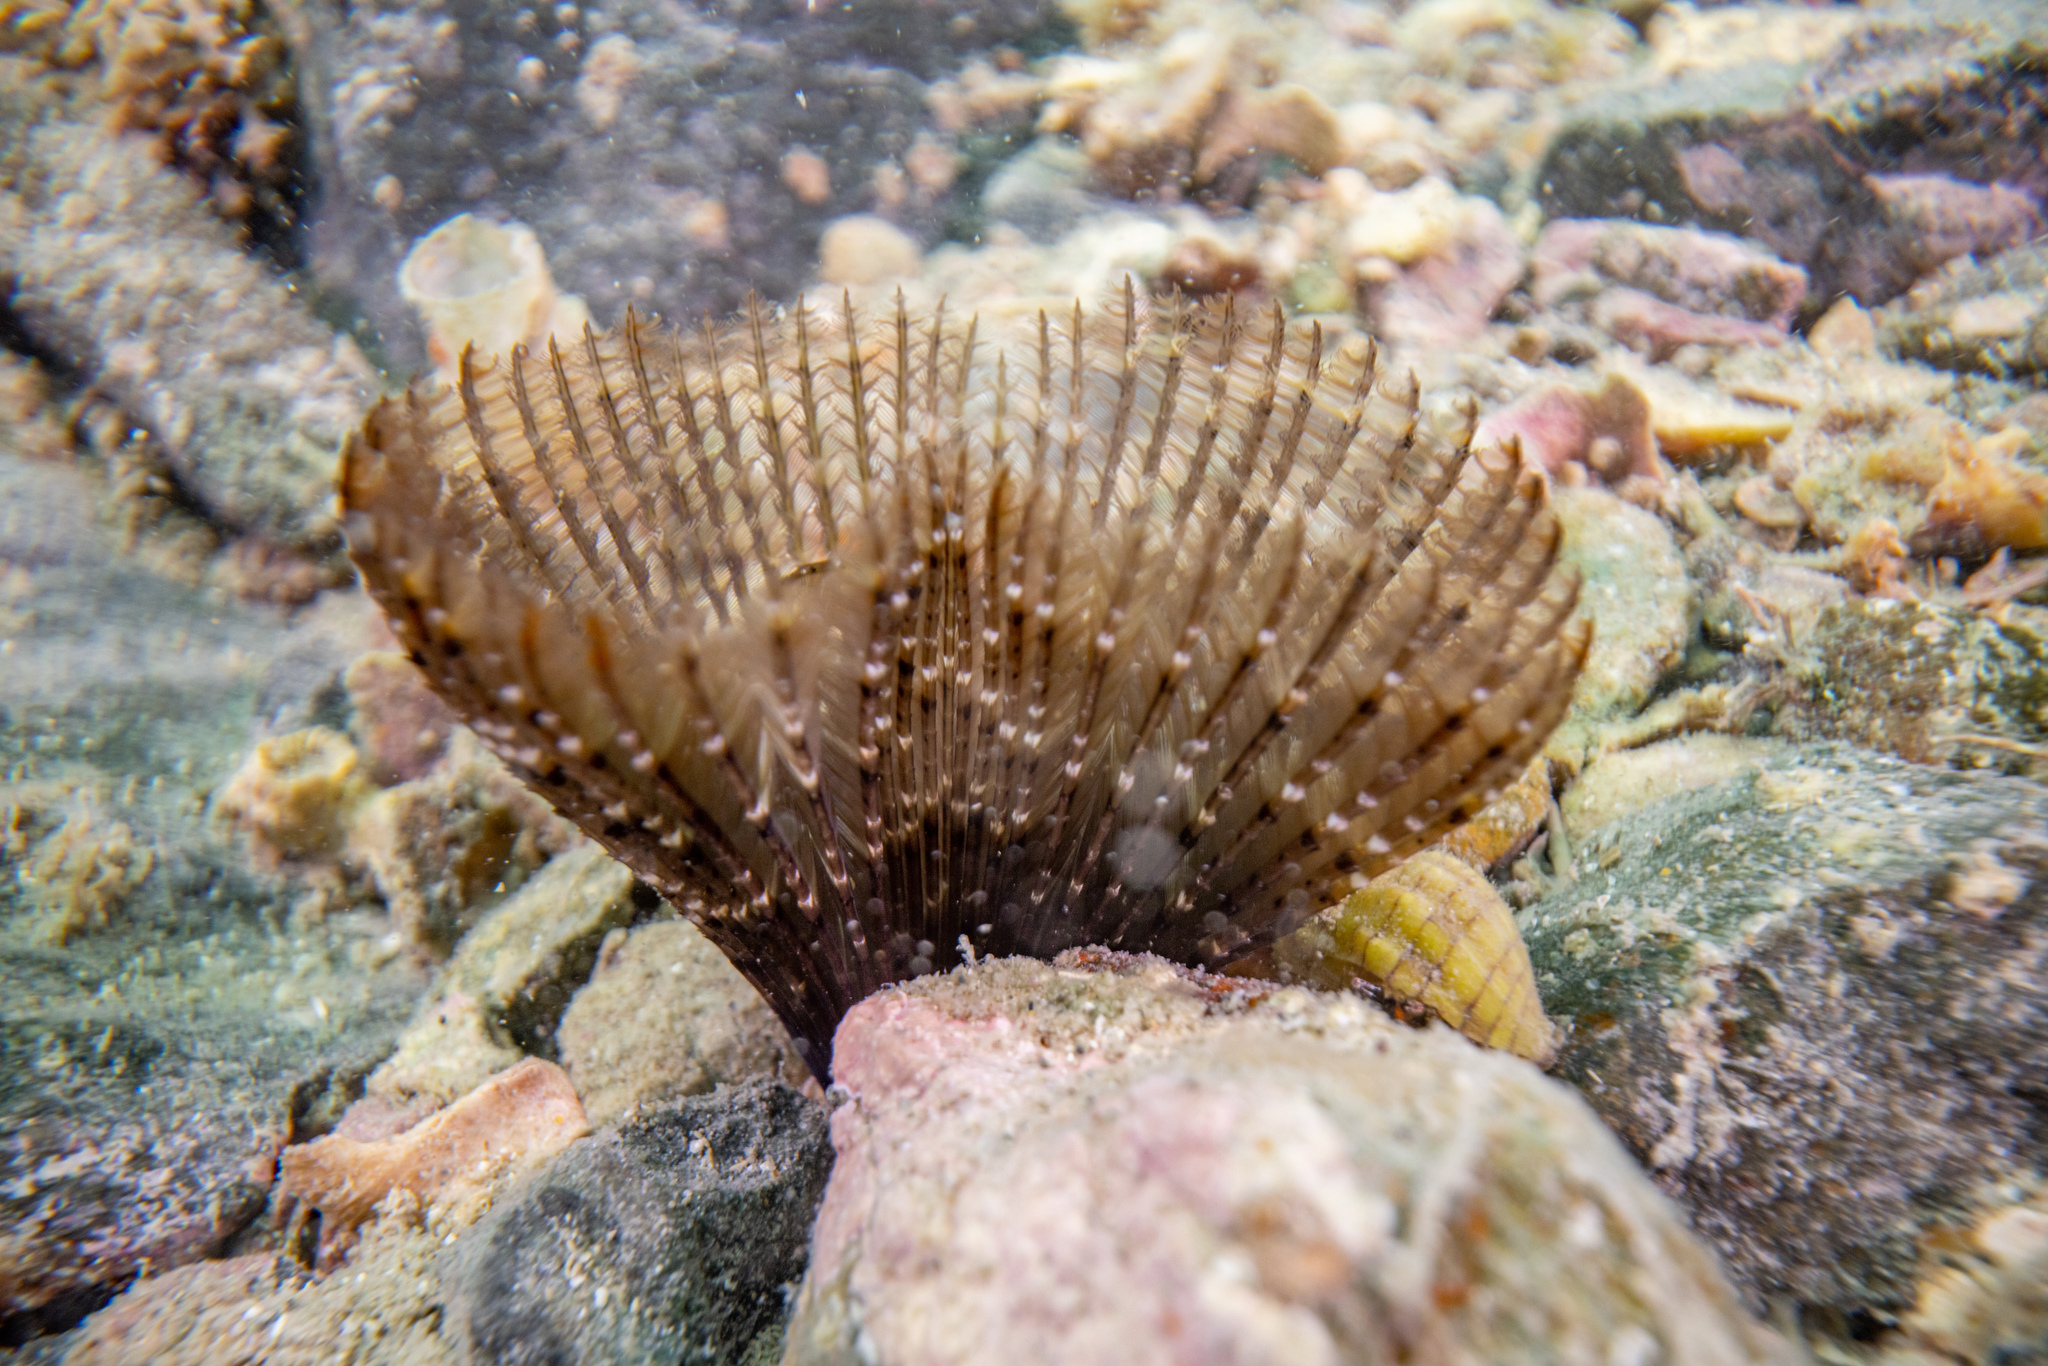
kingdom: Animalia
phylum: Annelida
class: Polychaeta
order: Sabellida
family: Sabellidae
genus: Pseudobranchiomma
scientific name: Pseudobranchiomma grandis
